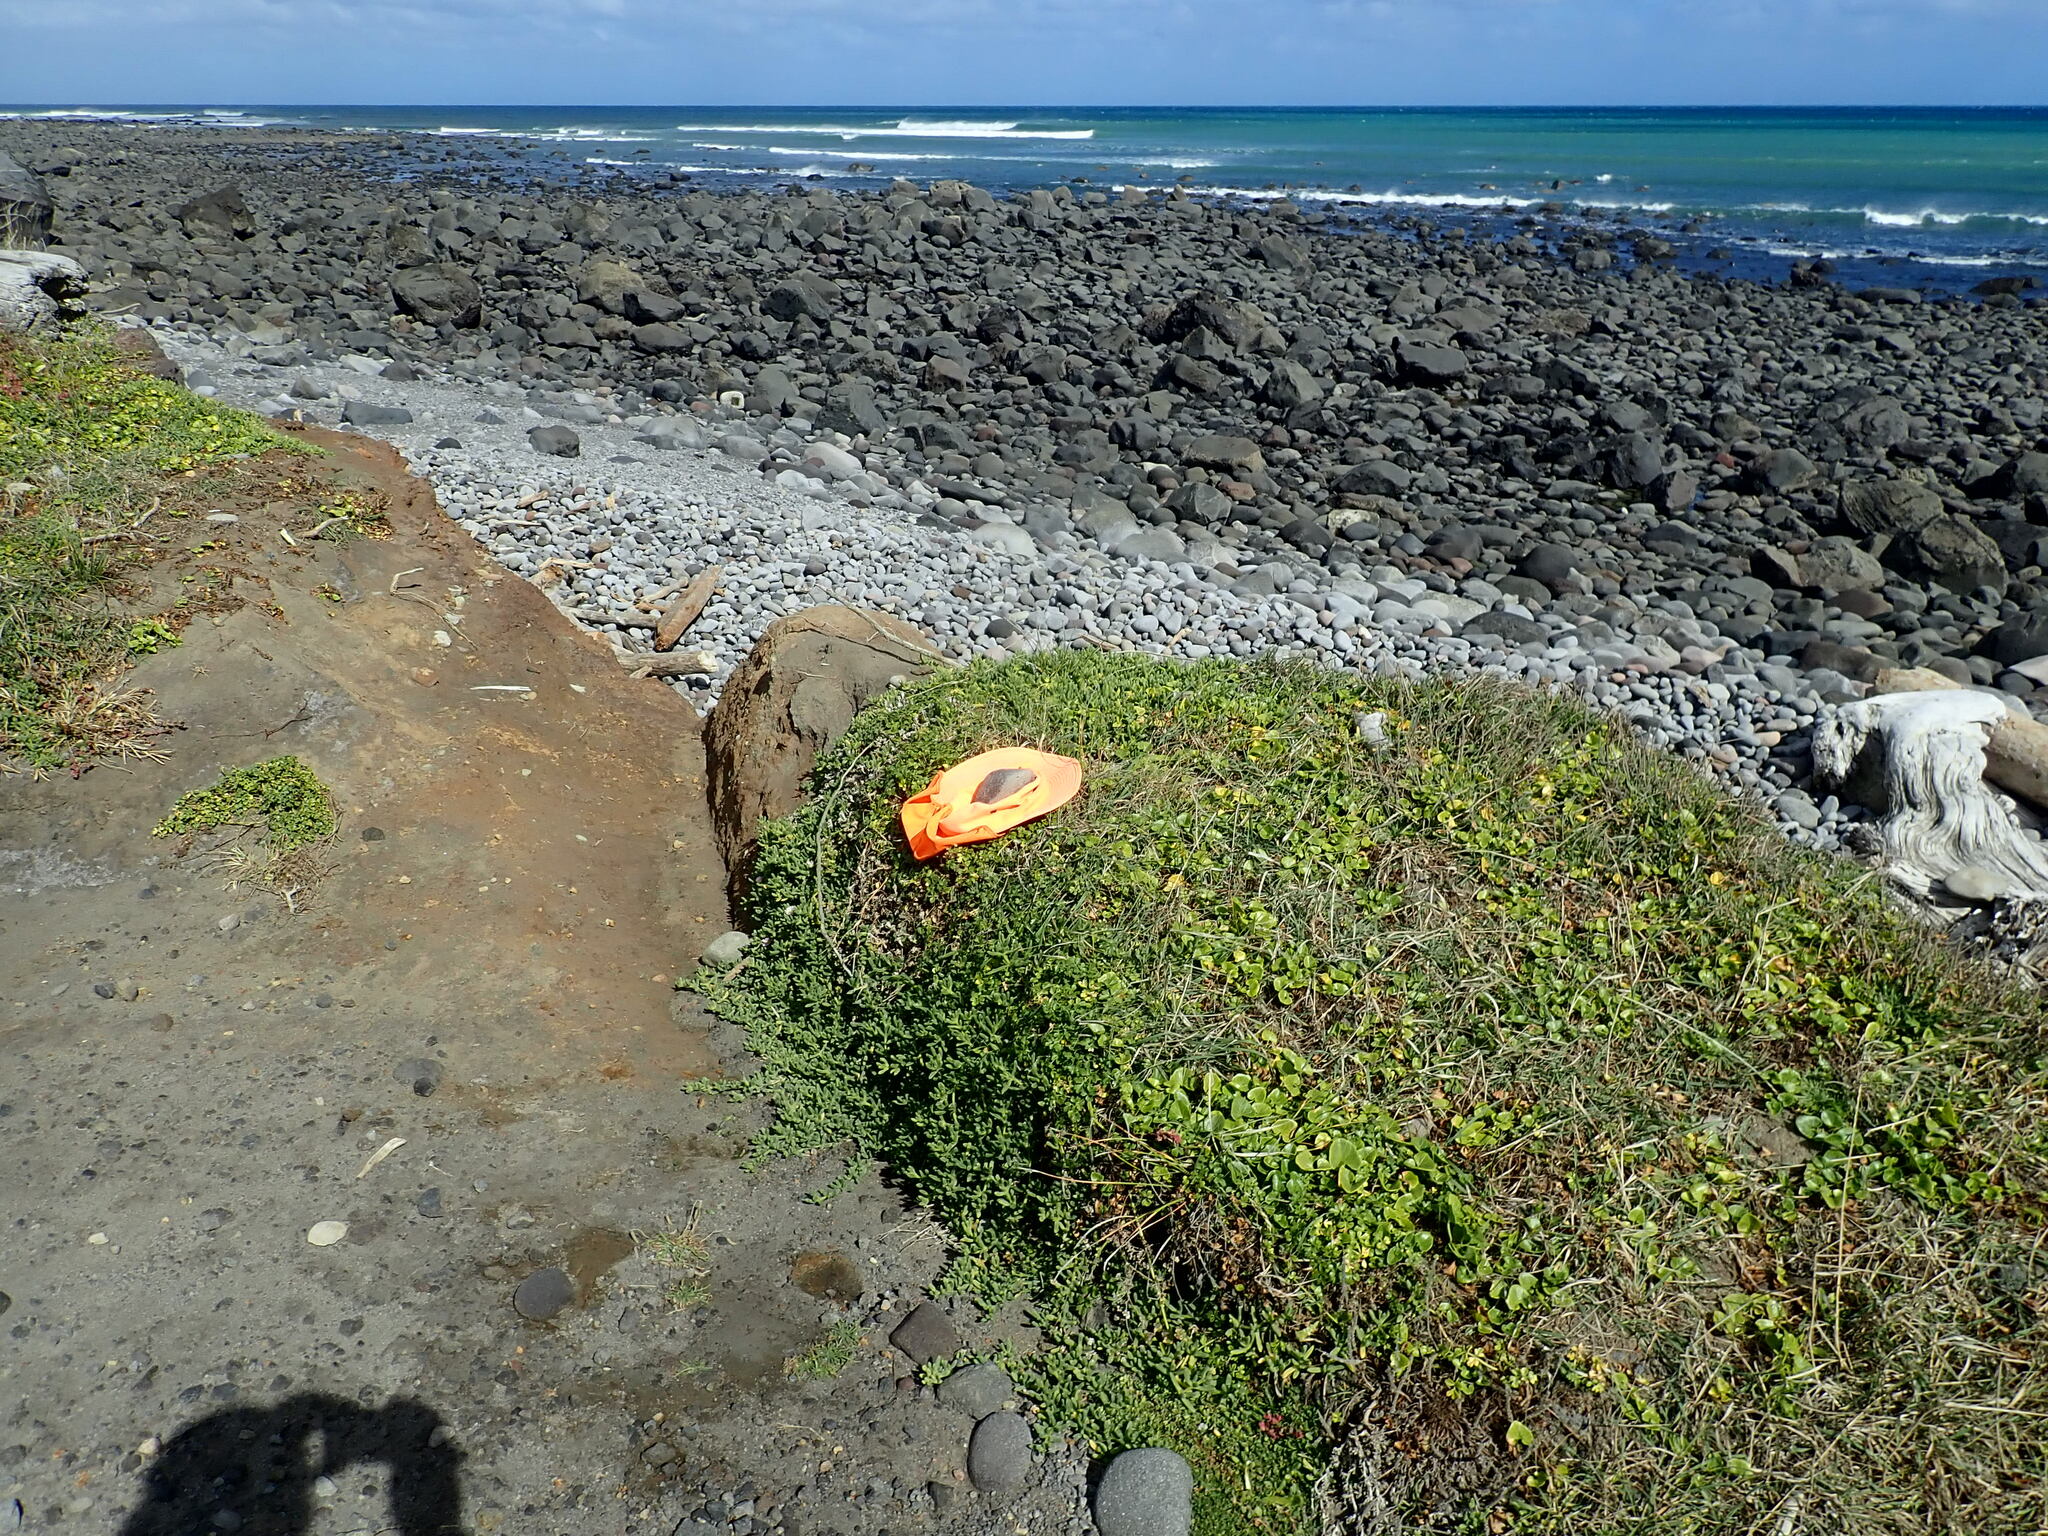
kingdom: Plantae
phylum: Tracheophyta
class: Magnoliopsida
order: Apiales
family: Apiaceae
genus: Apium
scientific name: Apium prostratum
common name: Prostrate marshwort
